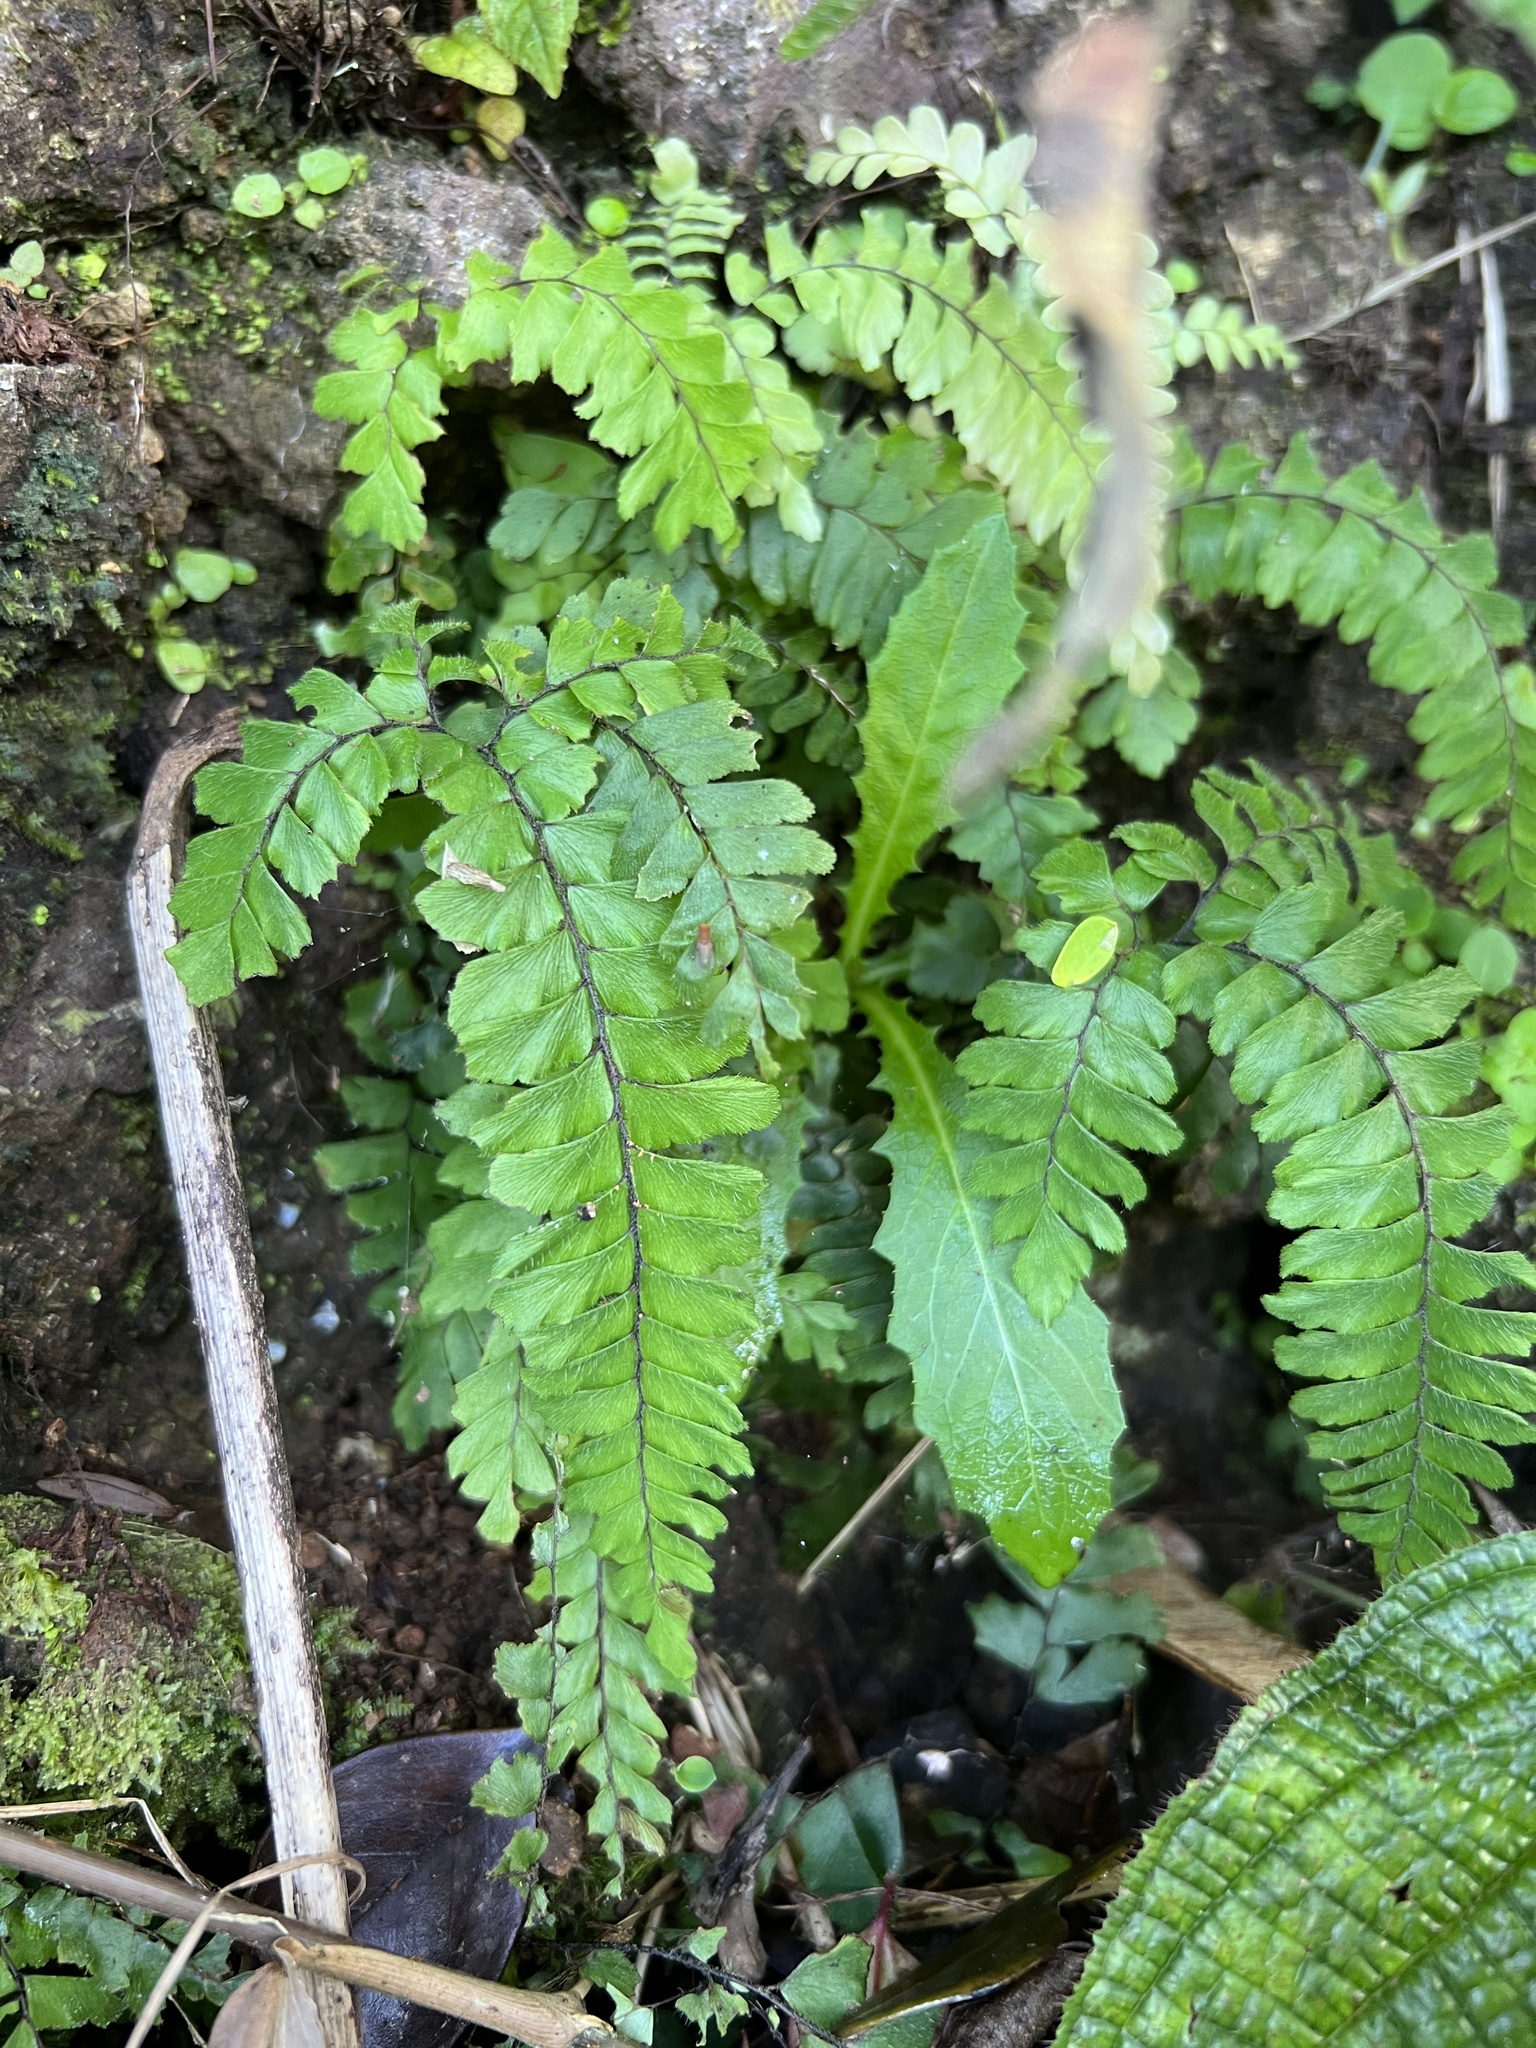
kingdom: Plantae
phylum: Tracheophyta
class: Polypodiopsida
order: Polypodiales
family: Pteridaceae
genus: Adiantum
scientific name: Adiantum hispidulum
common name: Rough maidenhair
